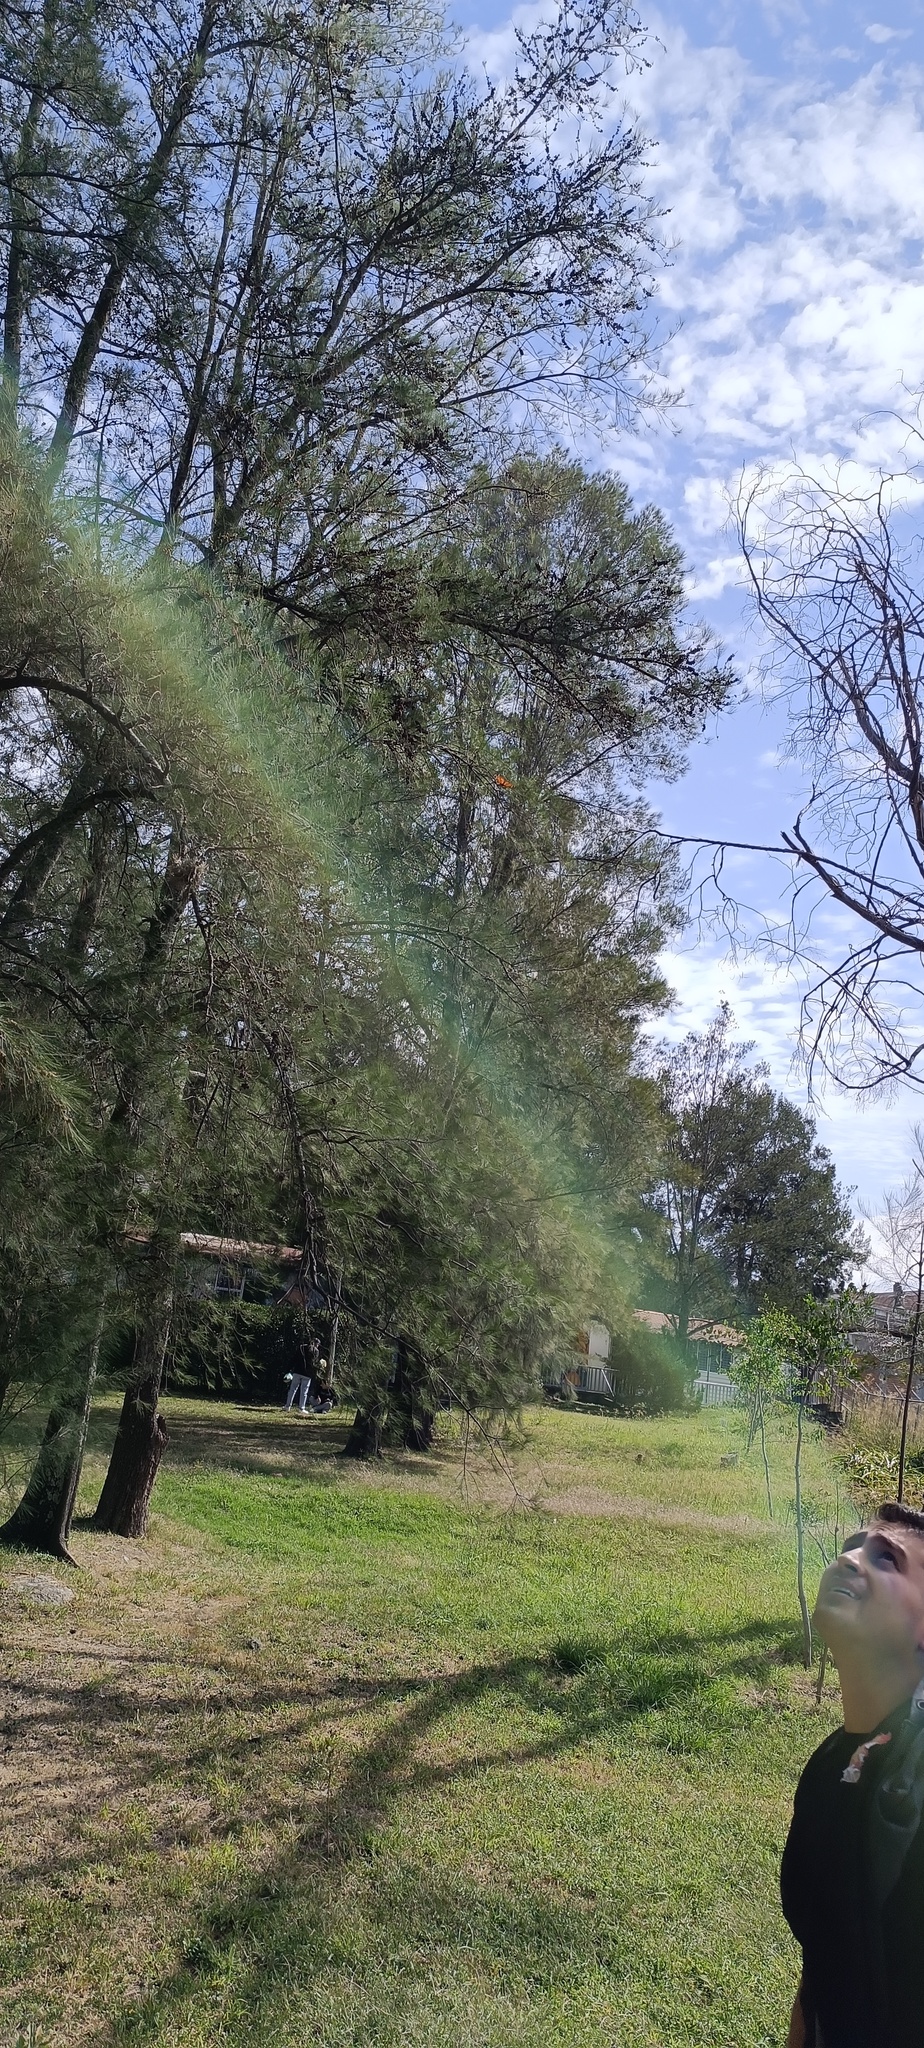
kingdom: Animalia
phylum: Arthropoda
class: Insecta
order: Lepidoptera
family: Nymphalidae
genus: Danaus
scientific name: Danaus plexippus
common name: Monarch
